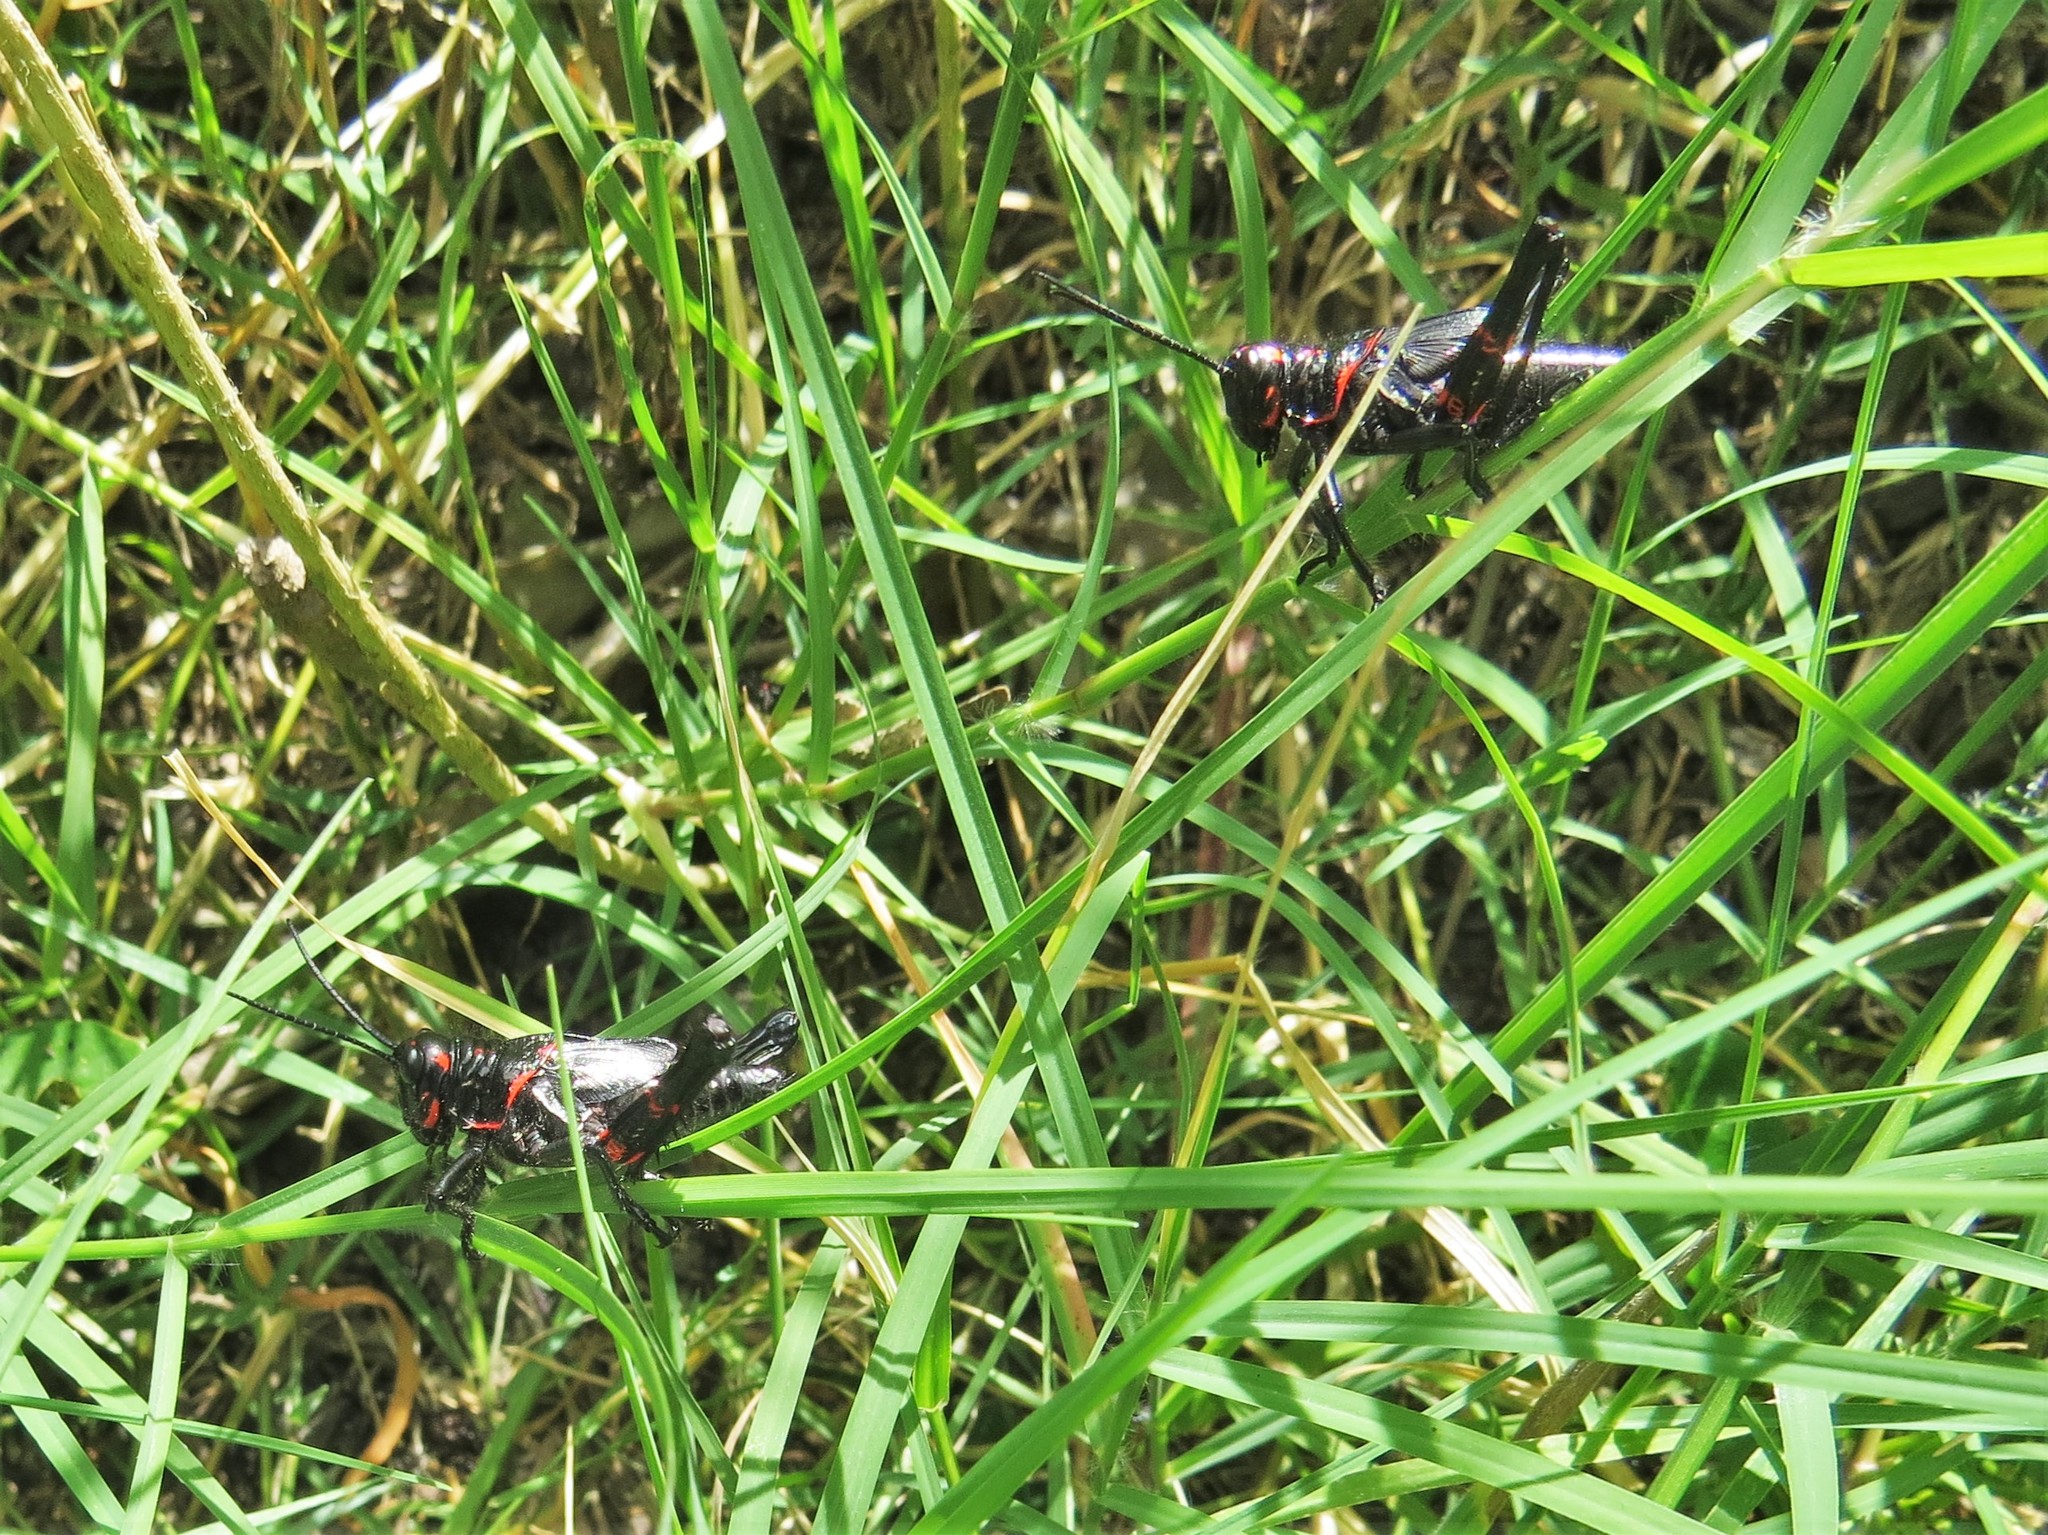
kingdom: Animalia
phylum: Arthropoda
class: Insecta
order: Orthoptera
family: Romaleidae
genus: Chromacris
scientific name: Chromacris speciosa
